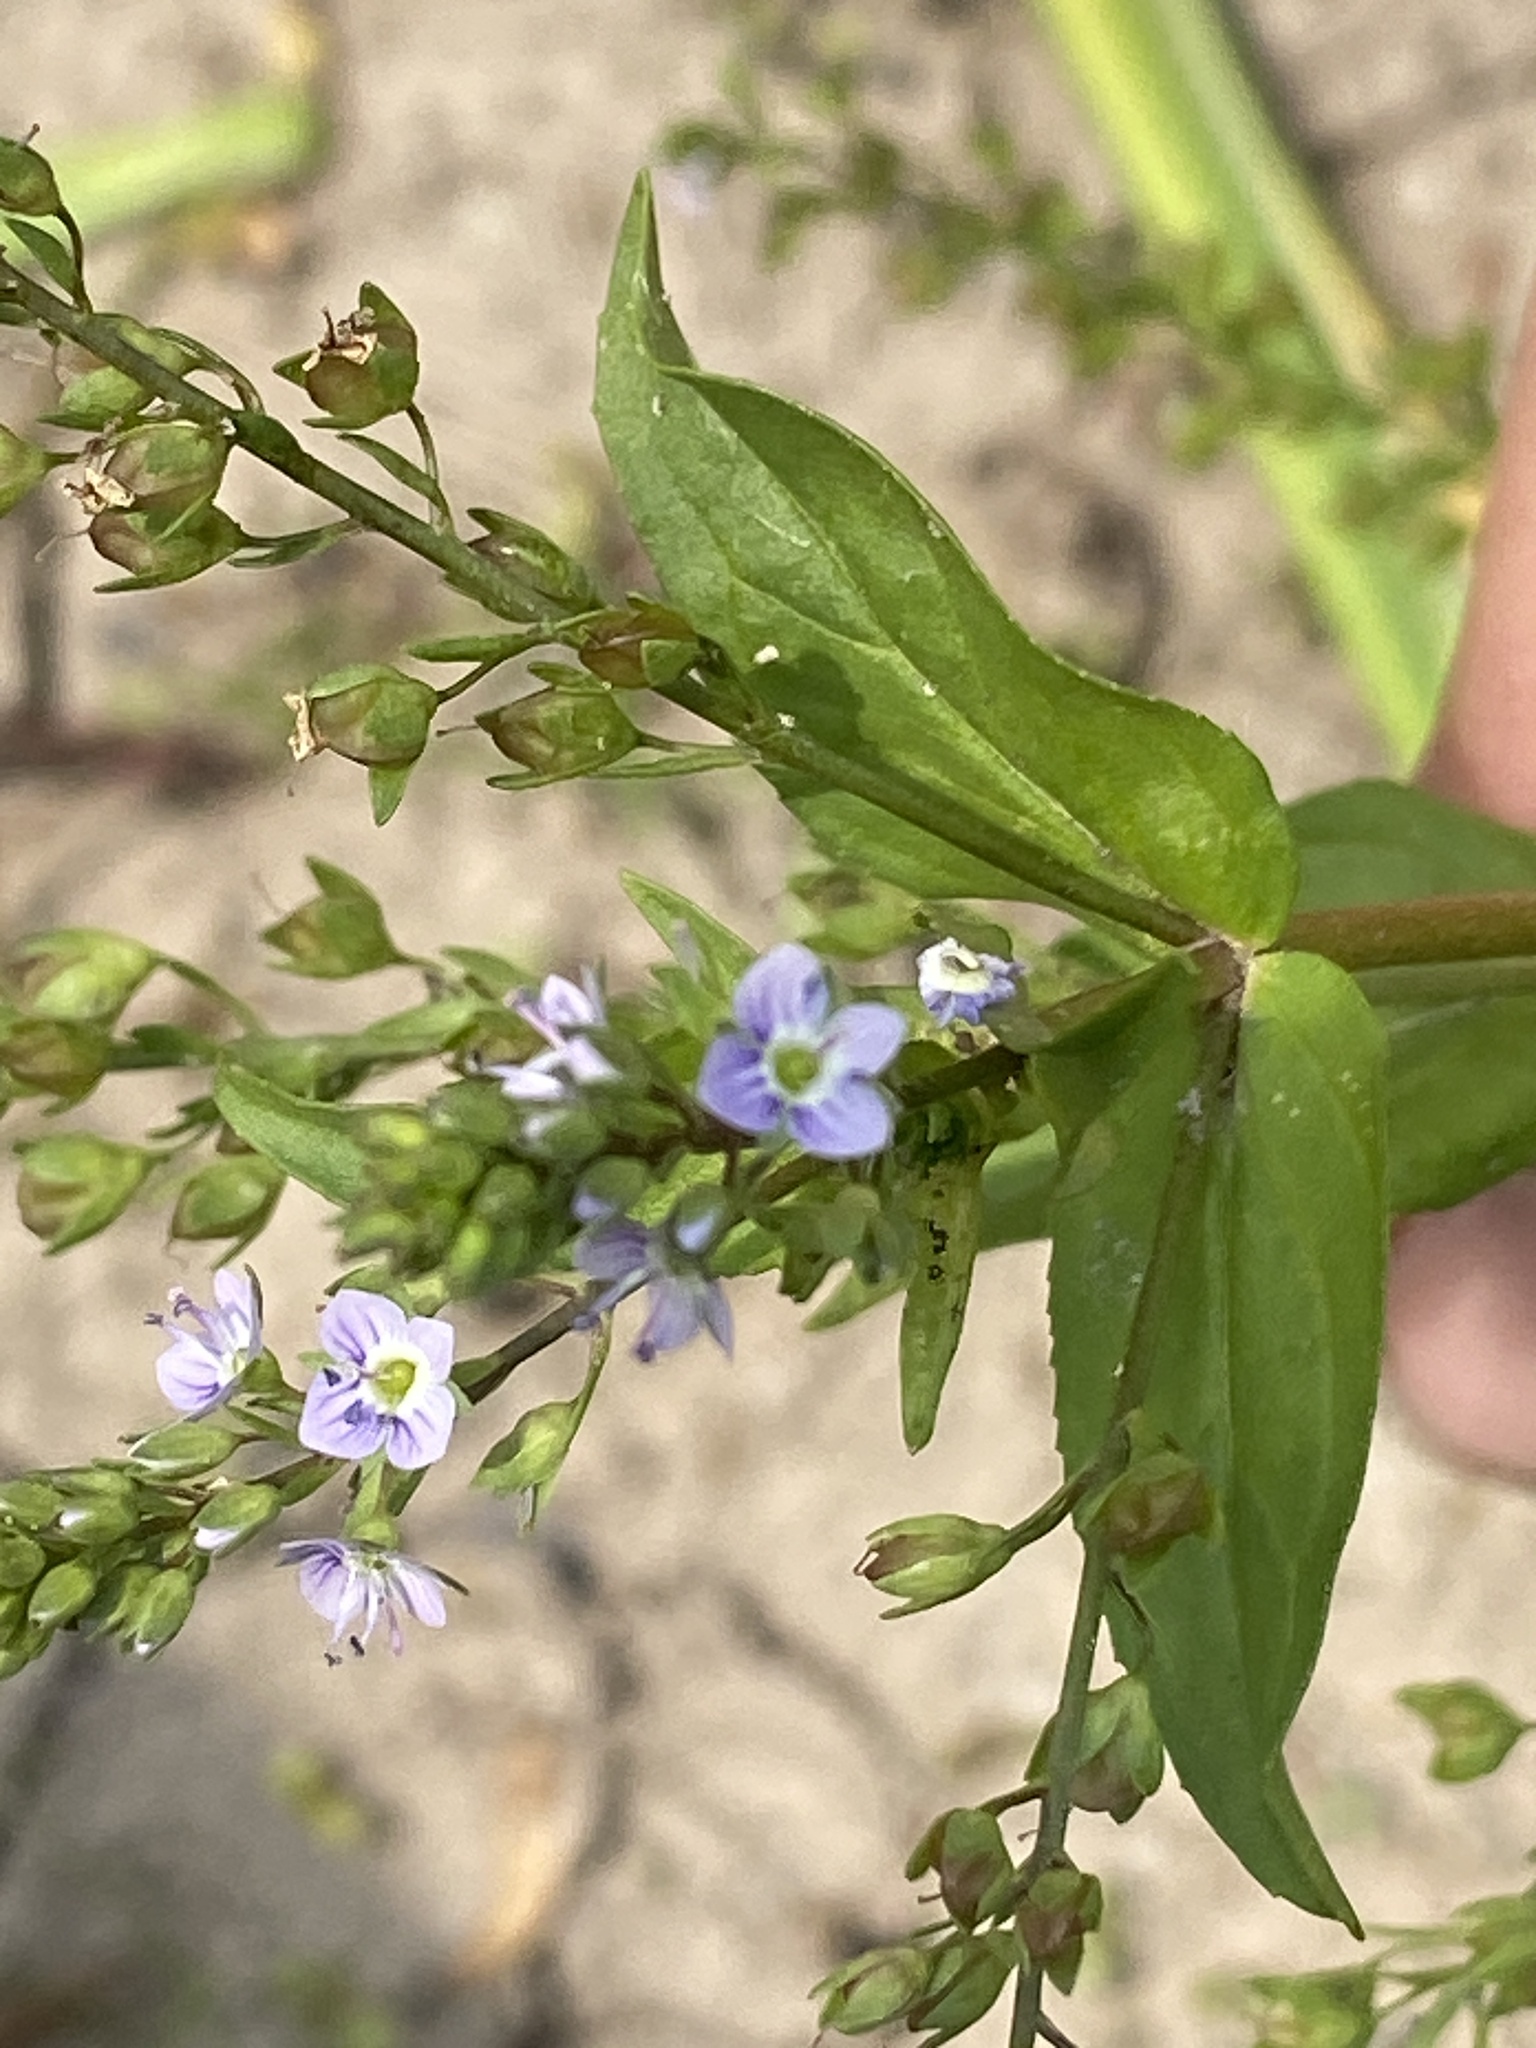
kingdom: Plantae
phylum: Tracheophyta
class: Magnoliopsida
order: Lamiales
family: Plantaginaceae
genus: Veronica
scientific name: Veronica anagallis-aquatica
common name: Water speedwell
